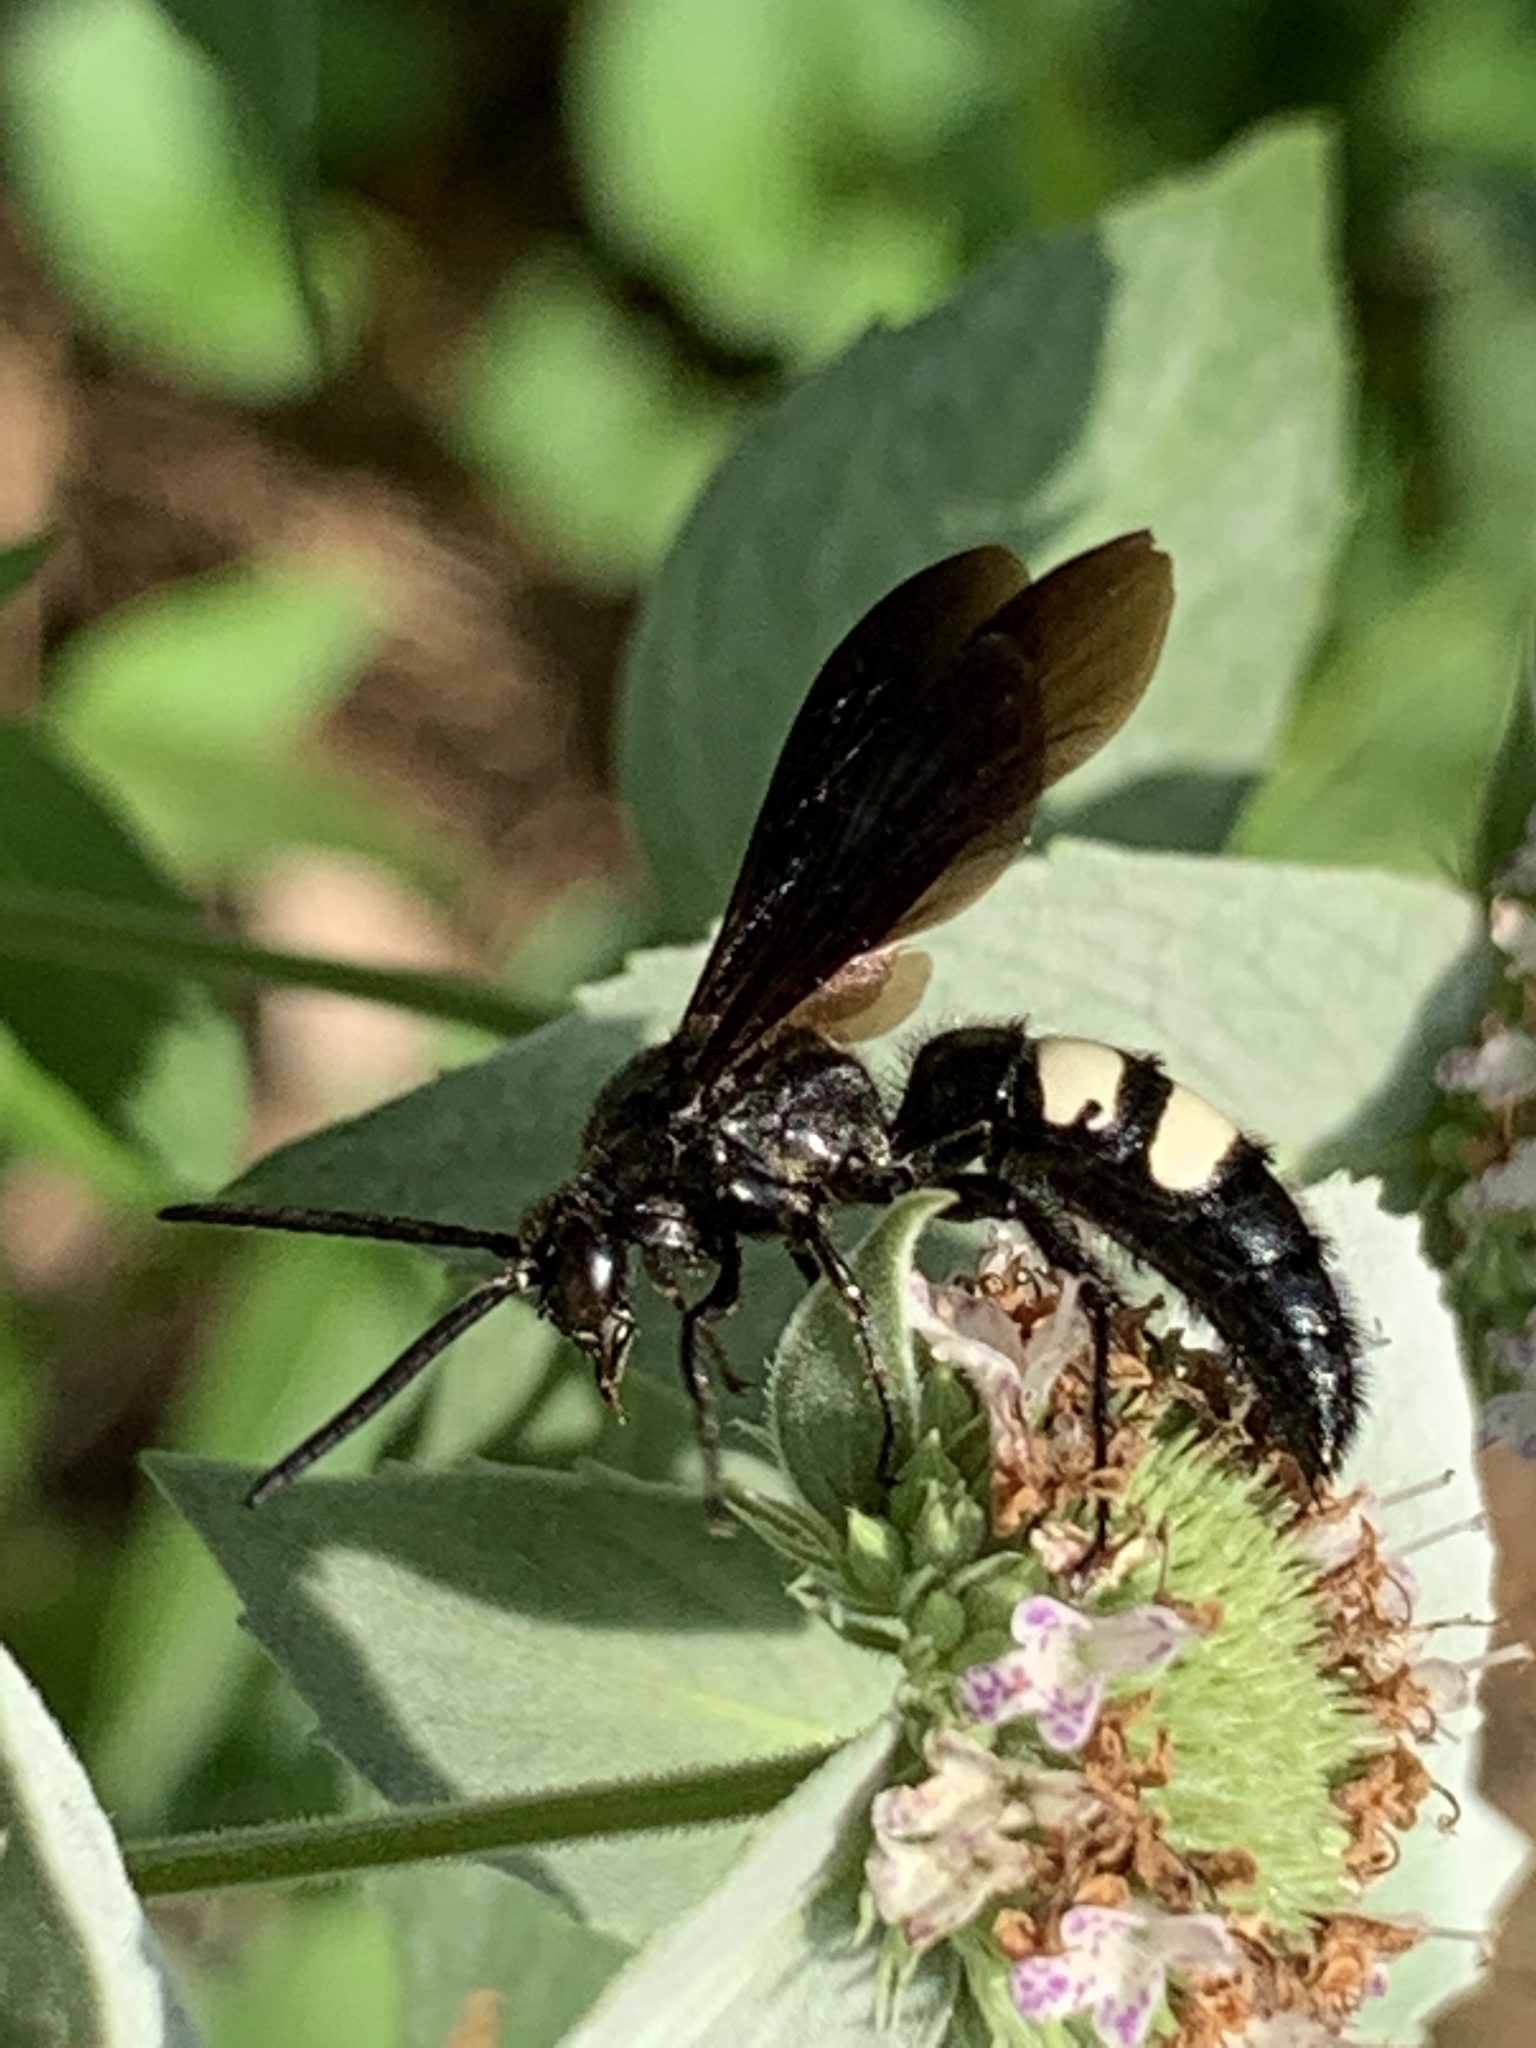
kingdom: Animalia
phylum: Arthropoda
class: Insecta
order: Hymenoptera
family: Scoliidae
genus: Scolia
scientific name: Scolia bicincta
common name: Double-banded scoliid wasp
